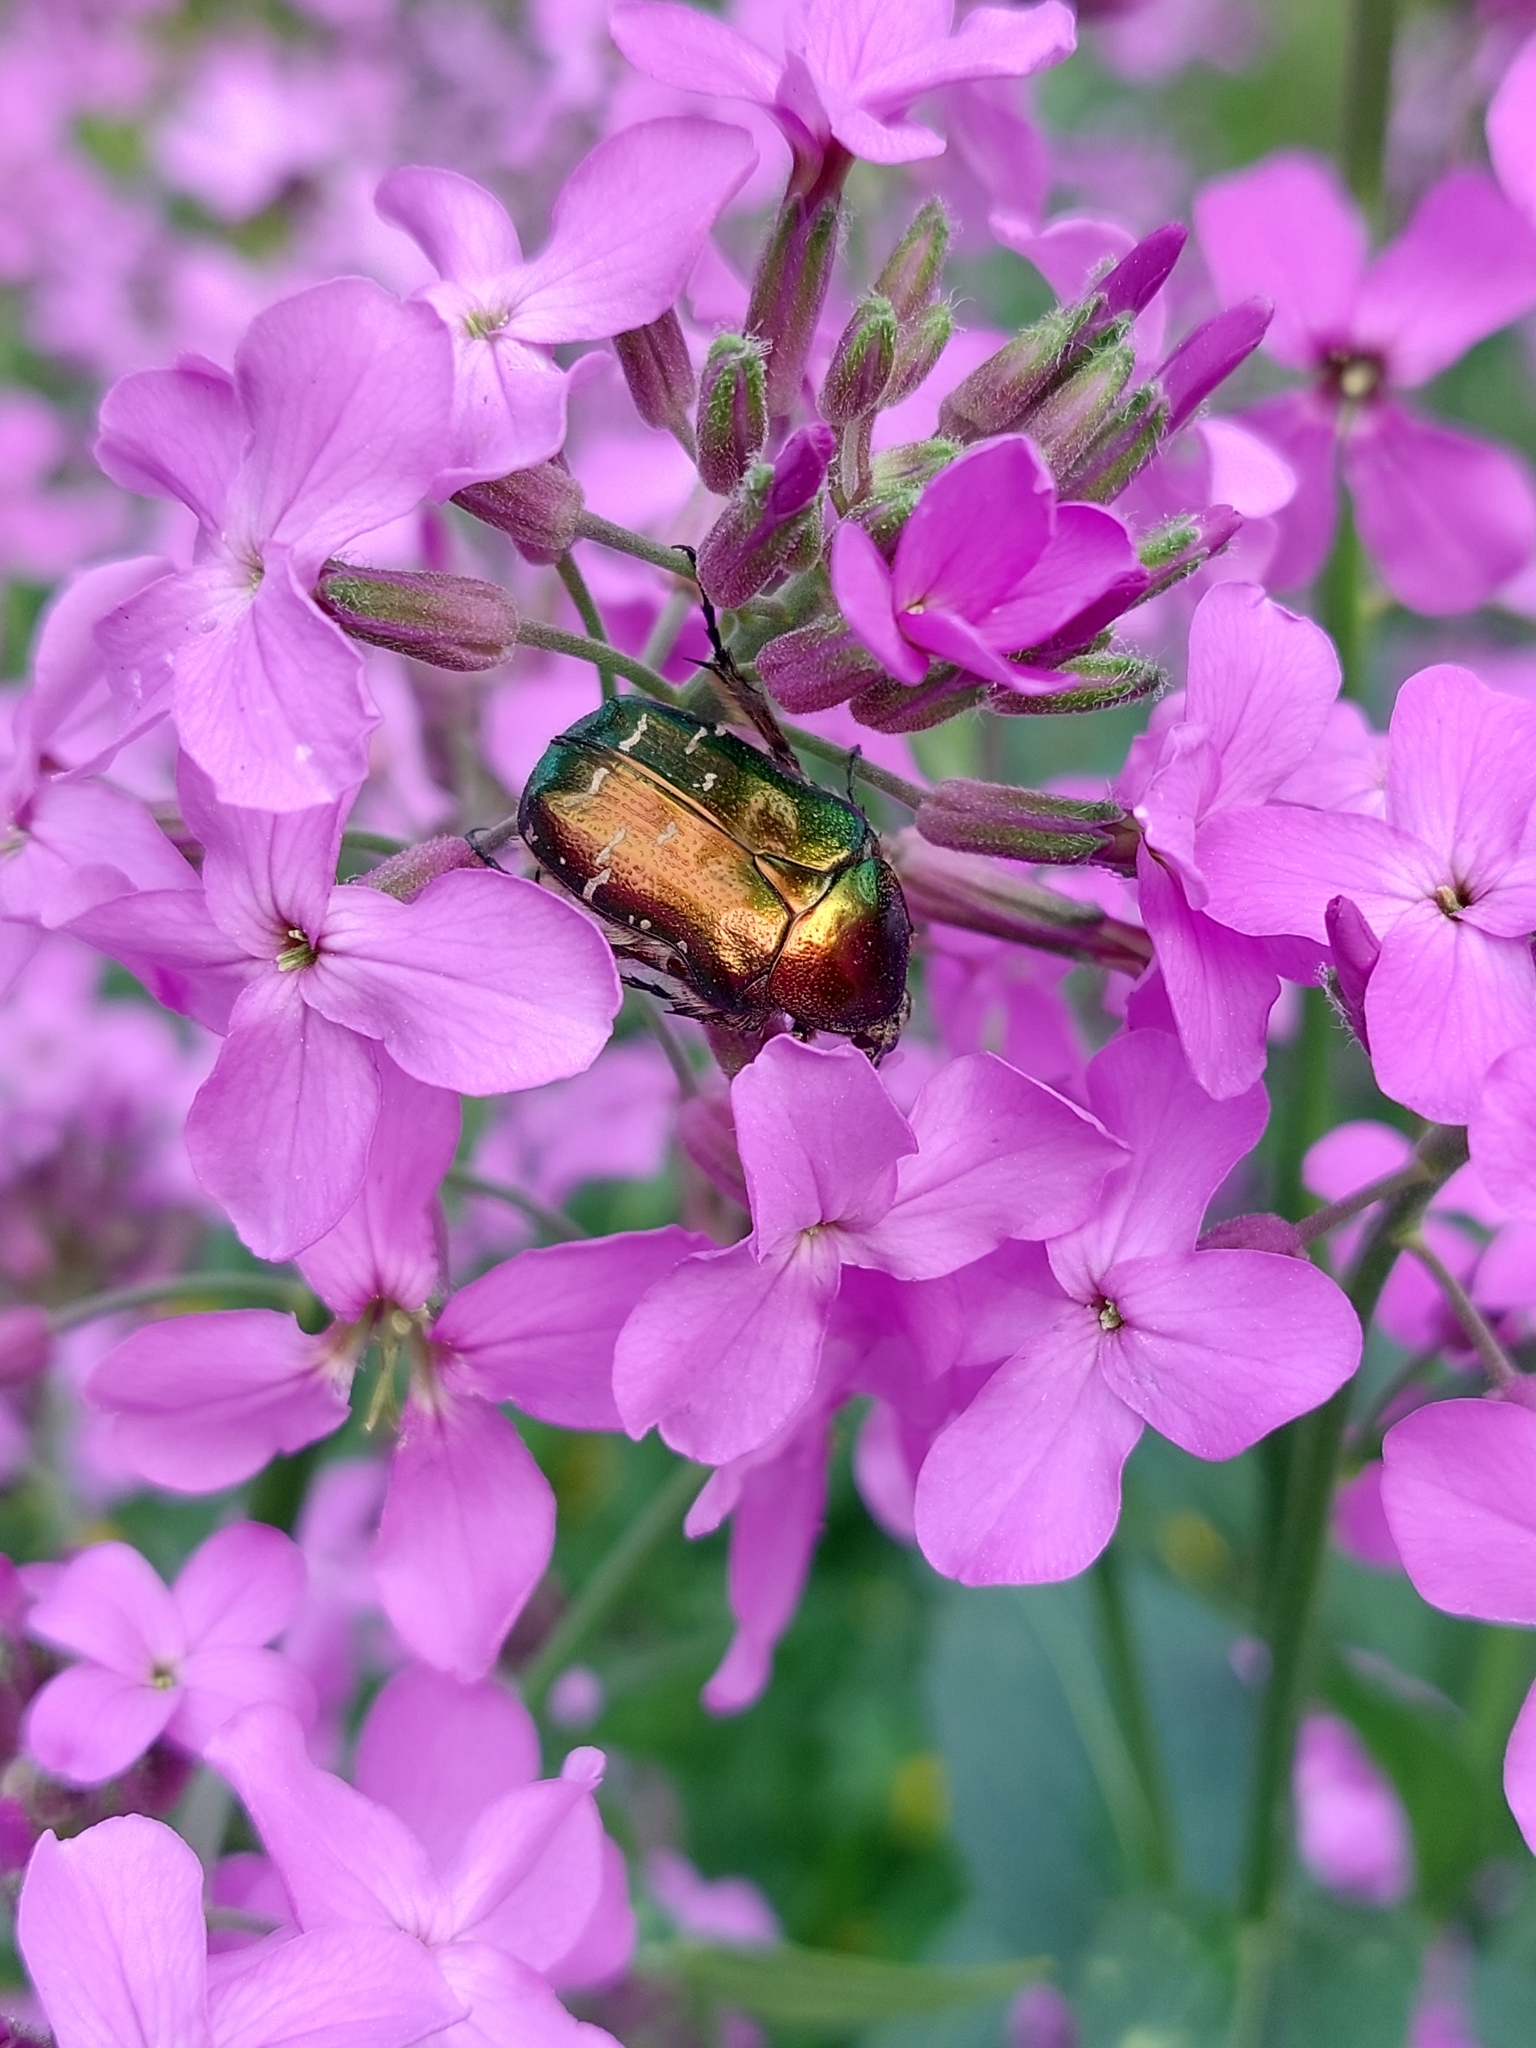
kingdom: Animalia
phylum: Arthropoda
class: Insecta
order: Coleoptera
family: Scarabaeidae
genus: Cetonia
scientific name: Cetonia aurata
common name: Rose chafer
